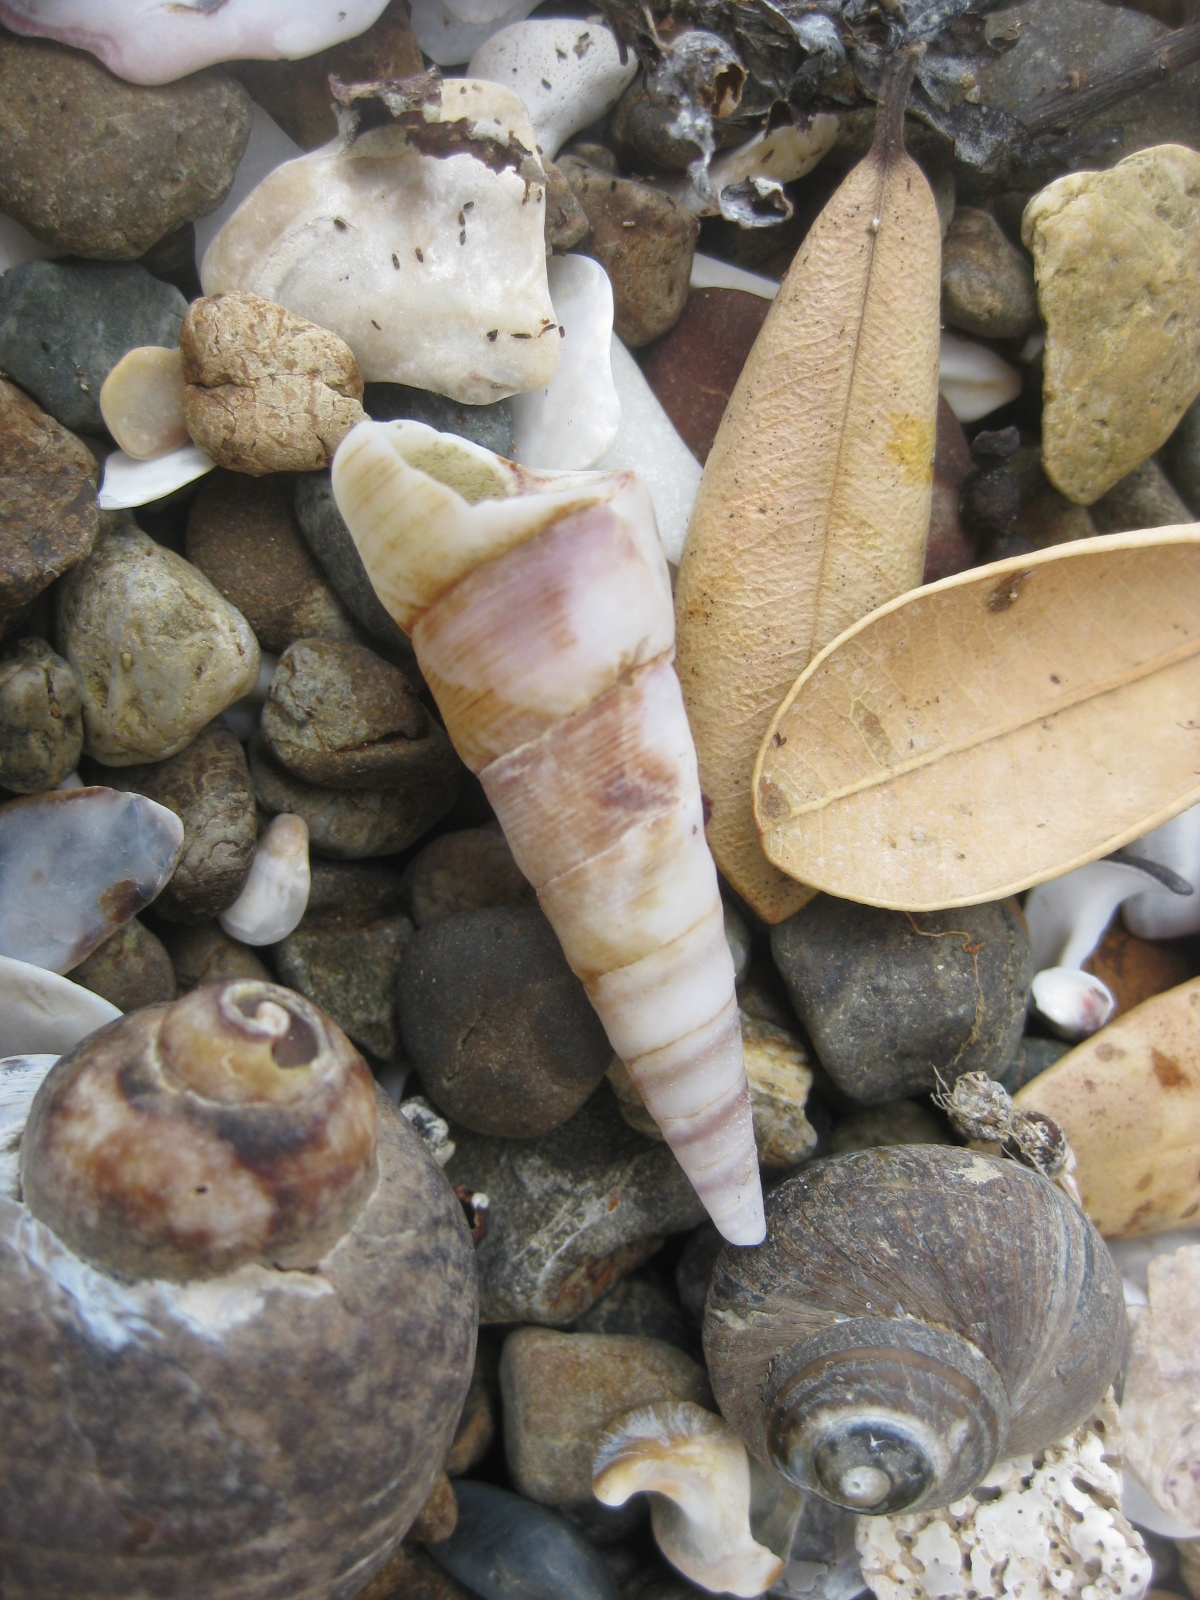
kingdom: Animalia
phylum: Mollusca
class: Gastropoda
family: Turritellidae
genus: Maoricolpus
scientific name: Maoricolpus roseus
